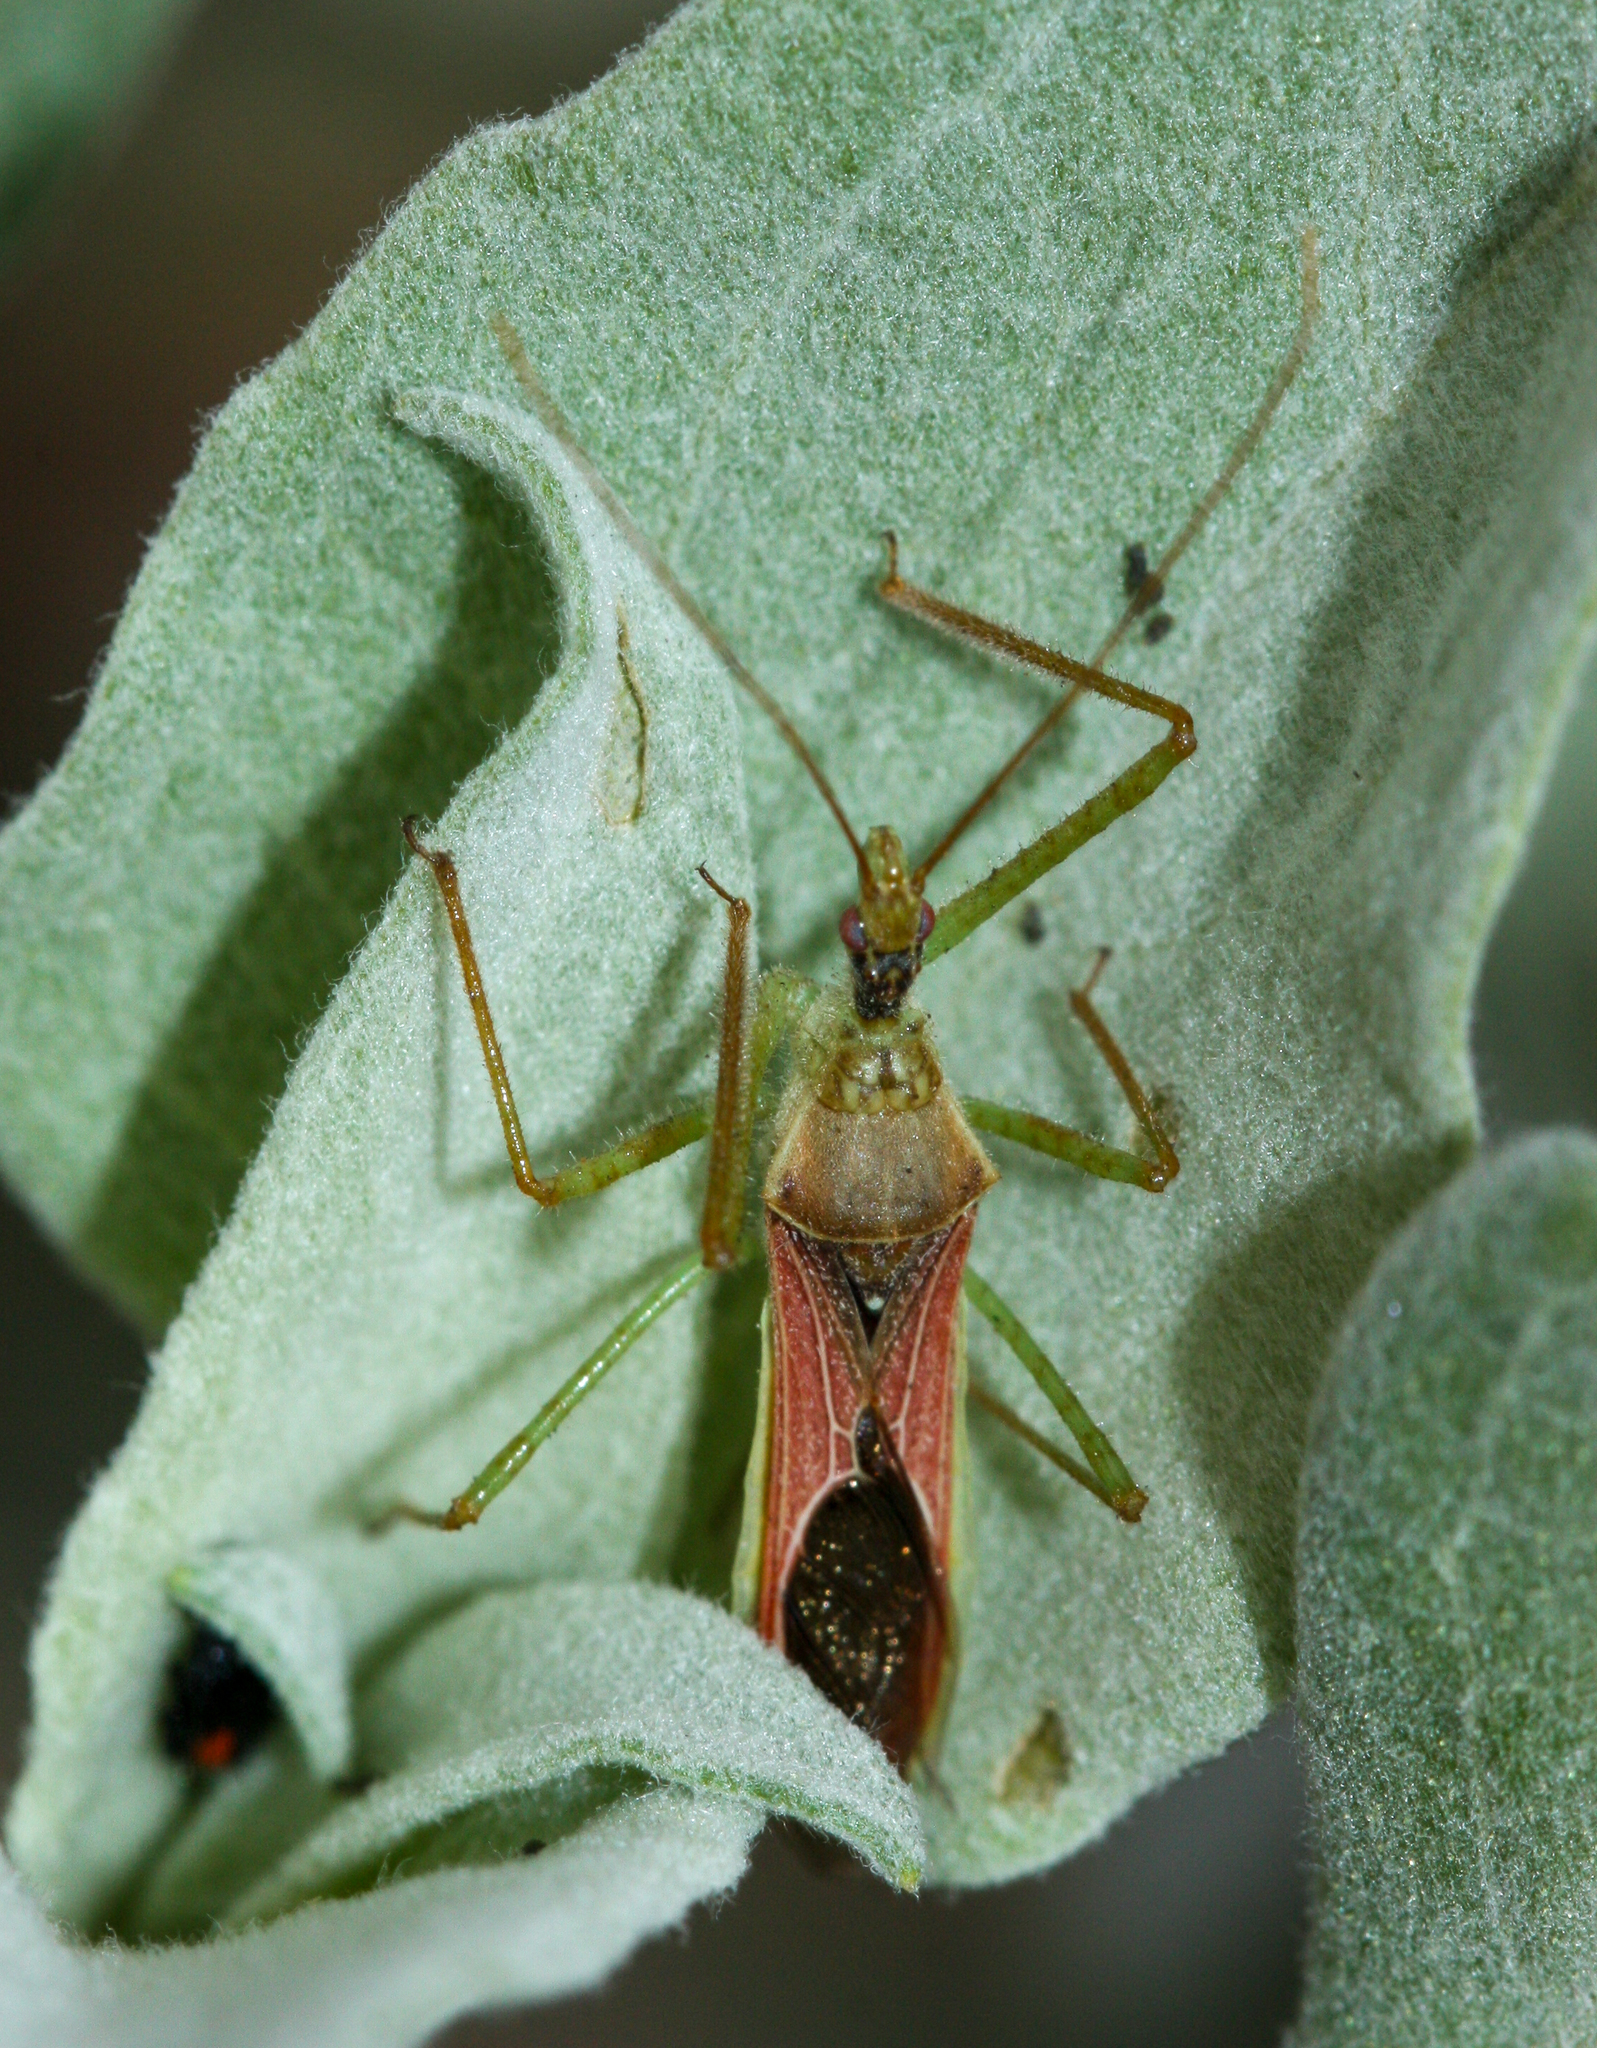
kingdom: Animalia
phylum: Arthropoda
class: Insecta
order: Hemiptera
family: Reduviidae
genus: Zelus
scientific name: Zelus renardii
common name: Assassin bug
